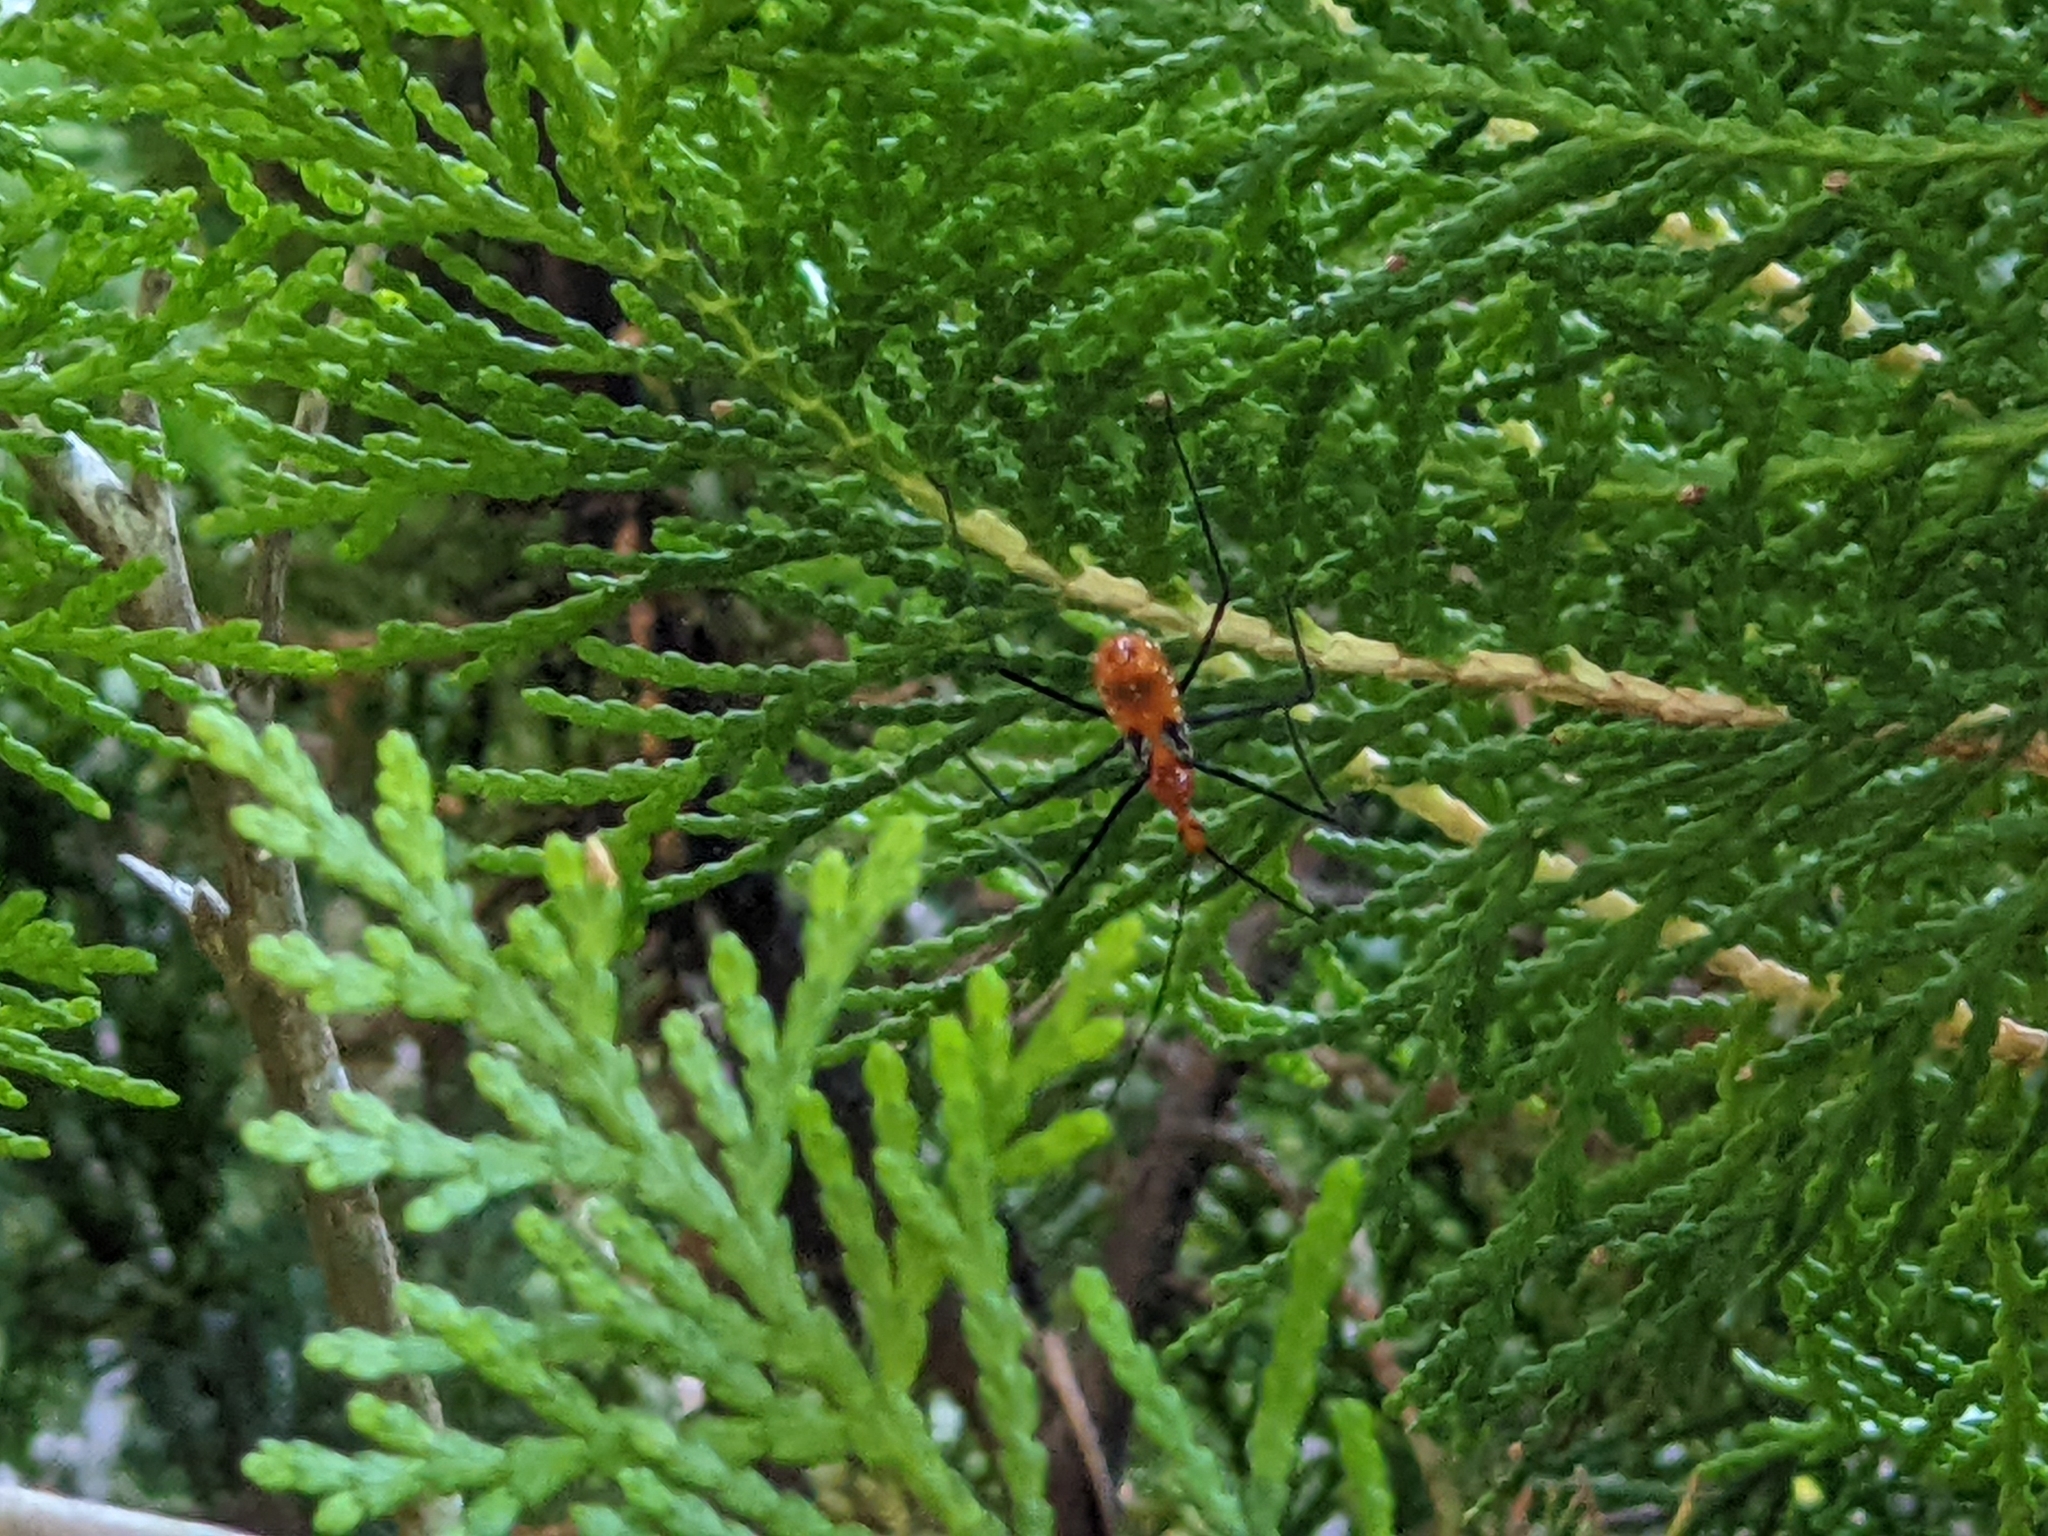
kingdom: Animalia
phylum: Arthropoda
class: Insecta
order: Hemiptera
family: Reduviidae
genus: Zelus
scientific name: Zelus longipes
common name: Milkweed assassin bug
